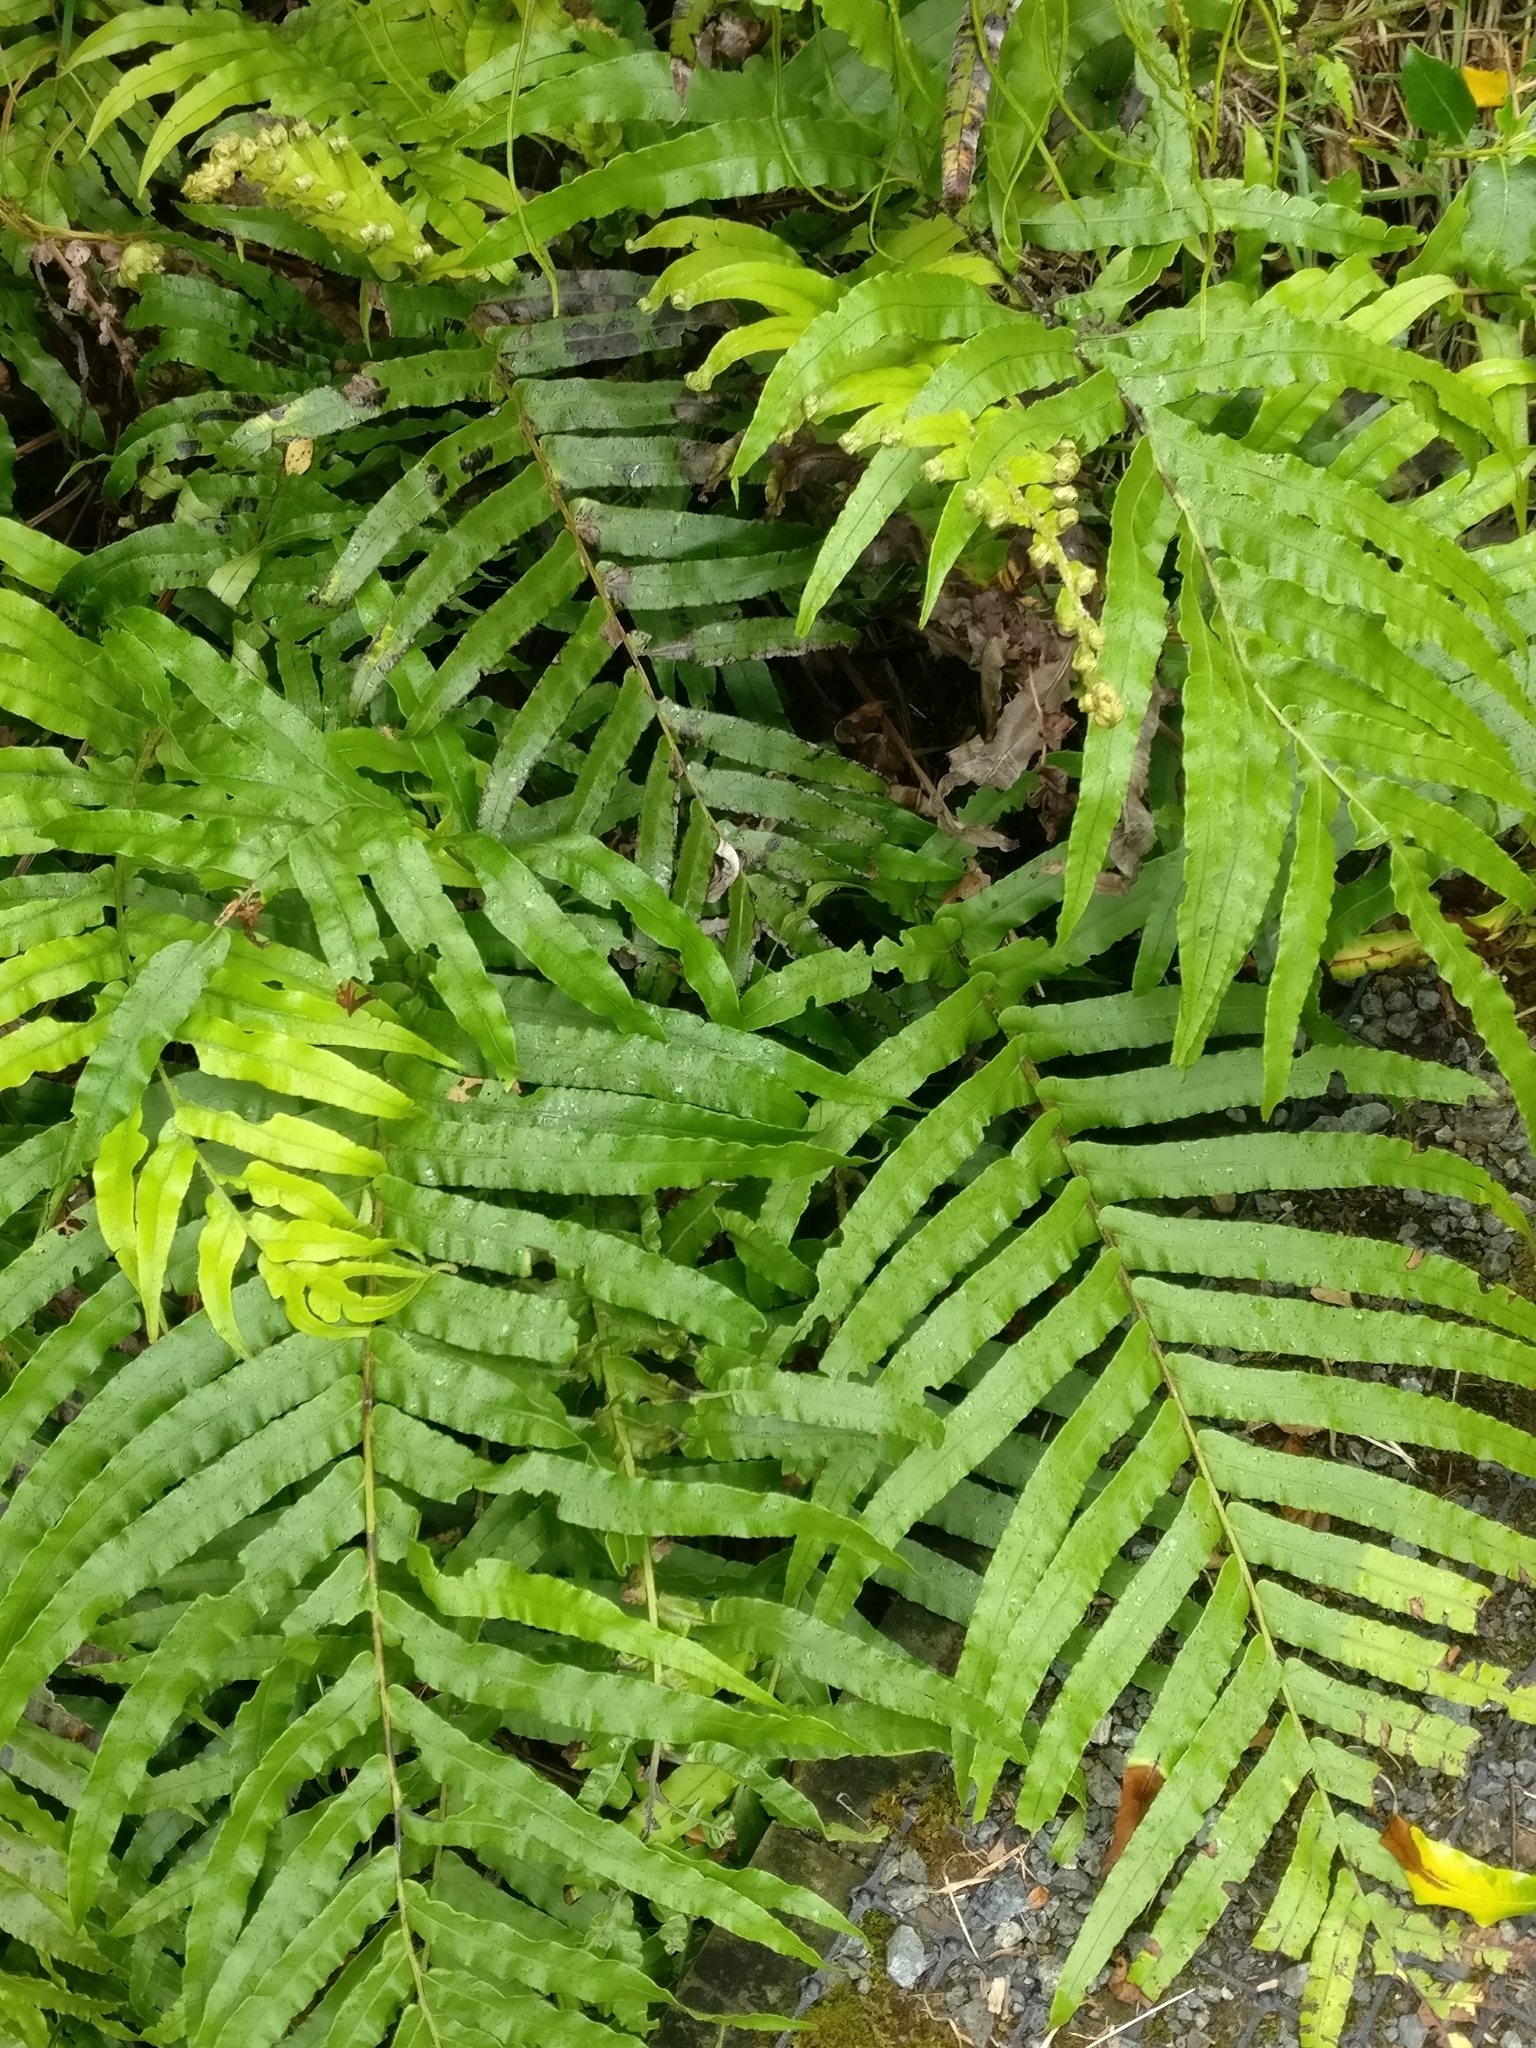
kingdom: Plantae
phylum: Tracheophyta
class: Polypodiopsida
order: Polypodiales
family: Blechnaceae
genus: Parablechnum
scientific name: Parablechnum novae-zelandiae
